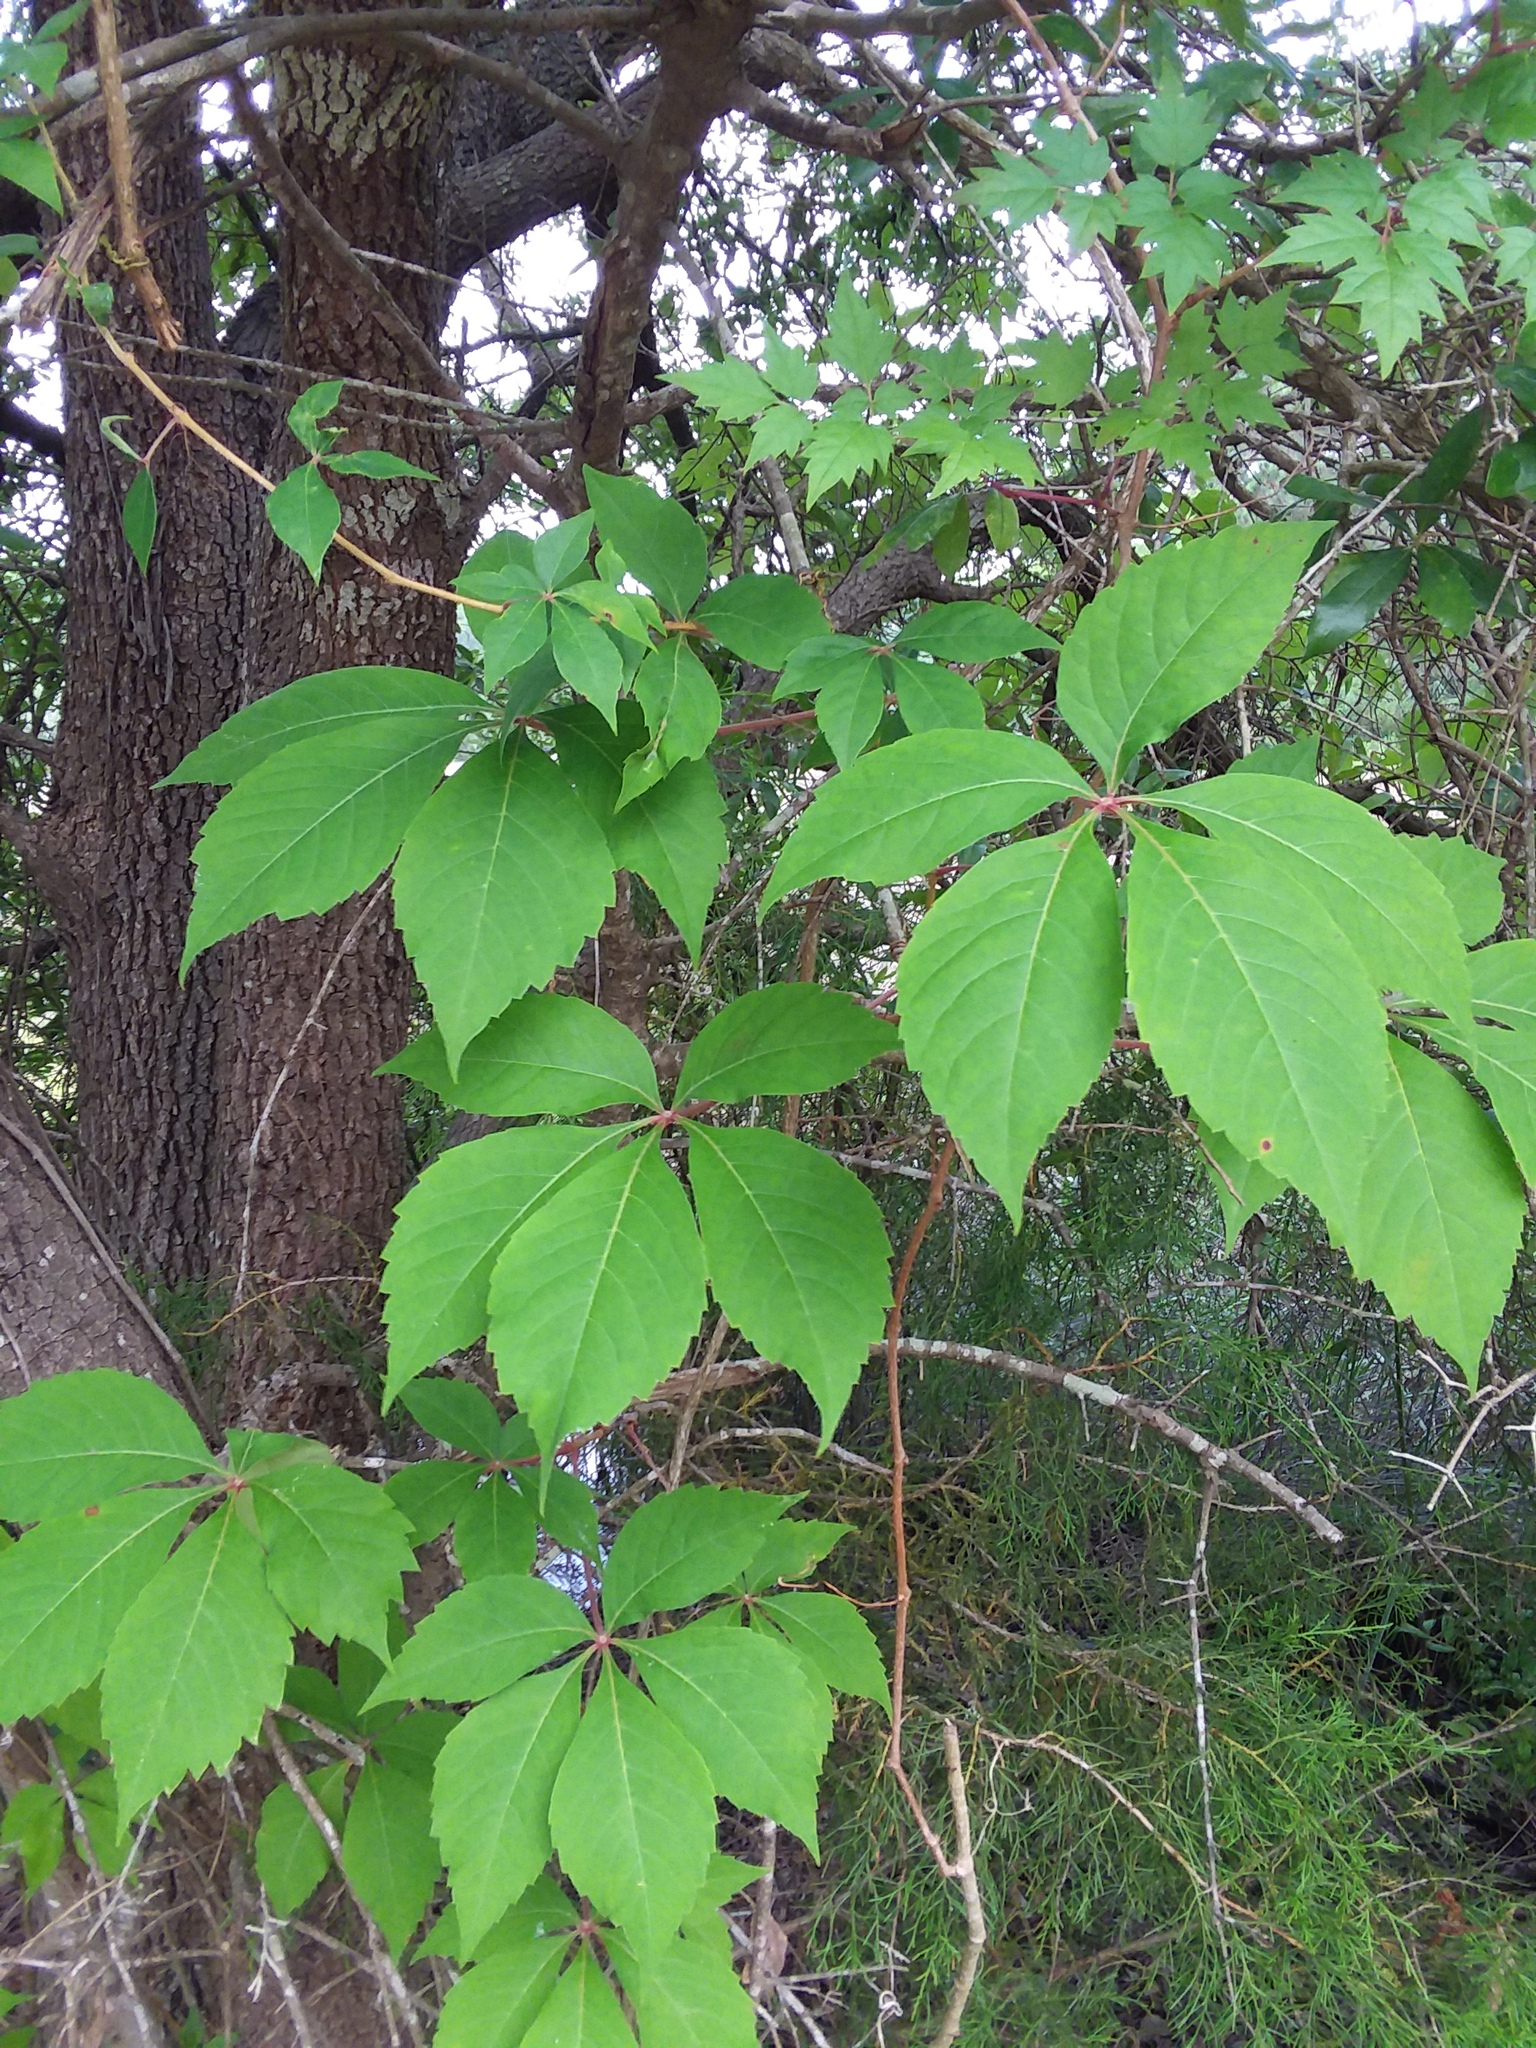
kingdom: Plantae
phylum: Tracheophyta
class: Magnoliopsida
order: Vitales
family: Vitaceae
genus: Parthenocissus
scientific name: Parthenocissus quinquefolia
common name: Virginia-creeper
